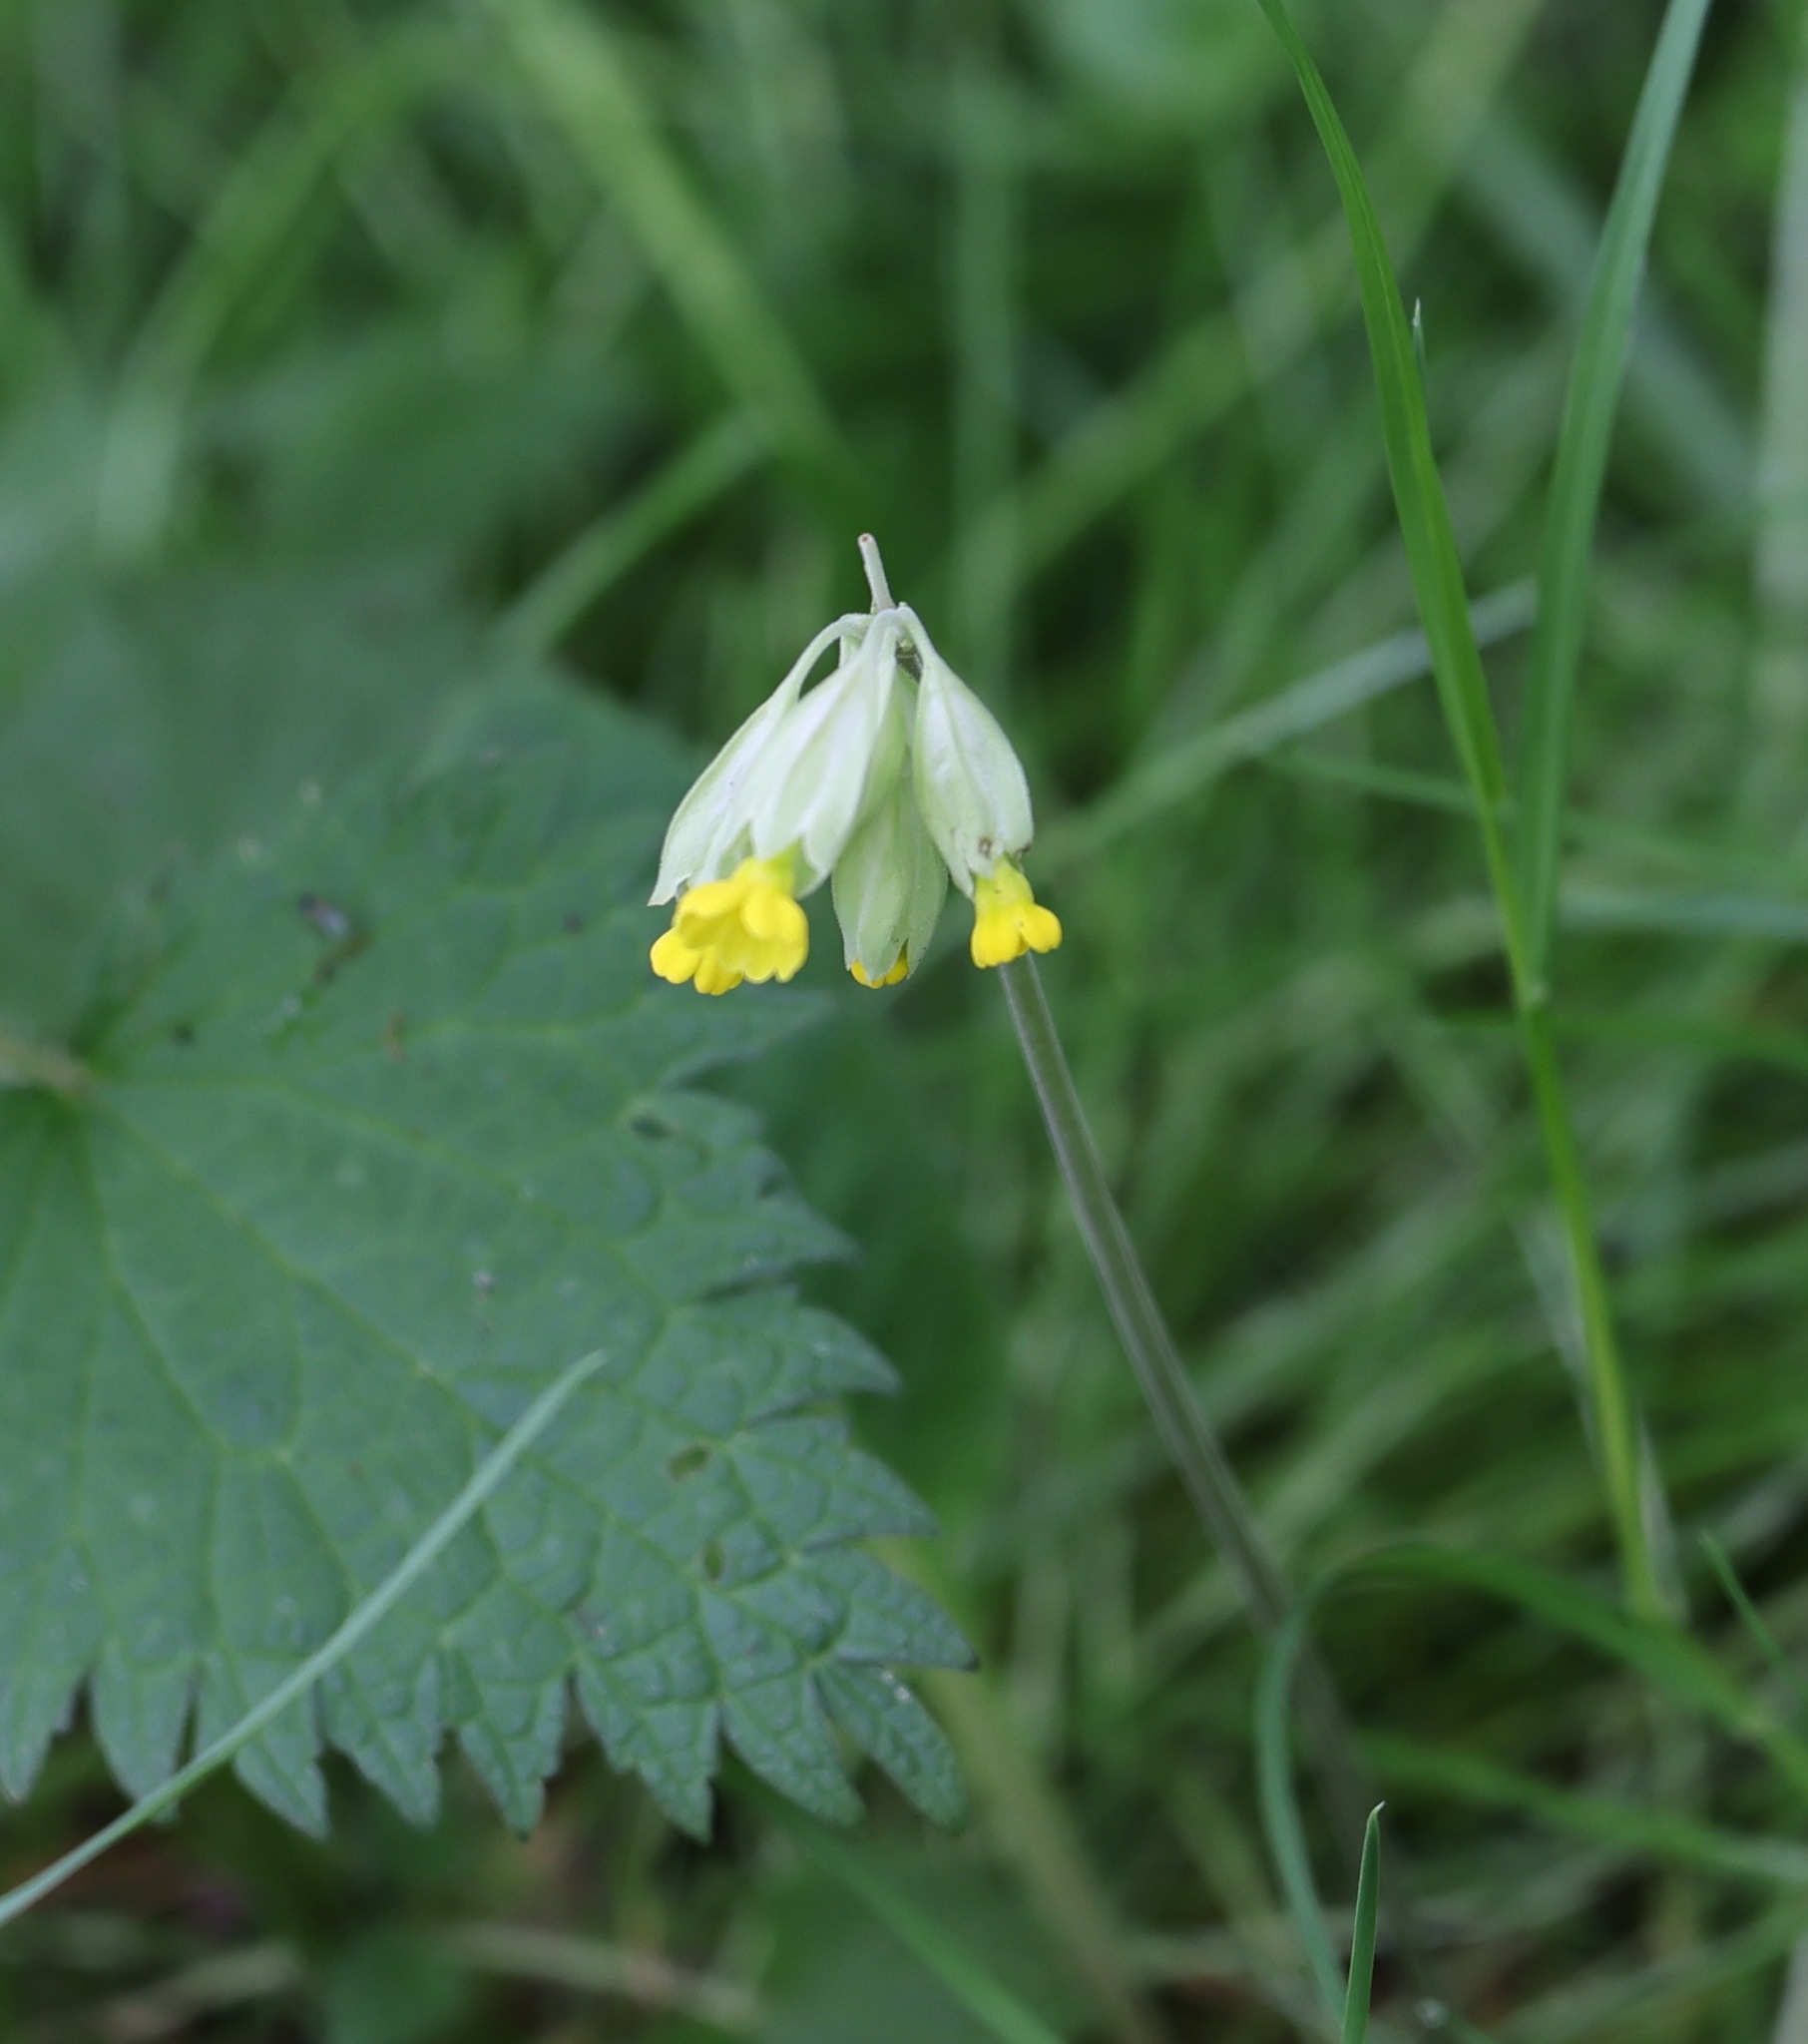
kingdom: Plantae
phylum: Tracheophyta
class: Magnoliopsida
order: Ericales
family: Primulaceae
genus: Primula
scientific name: Primula veris
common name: Cowslip
